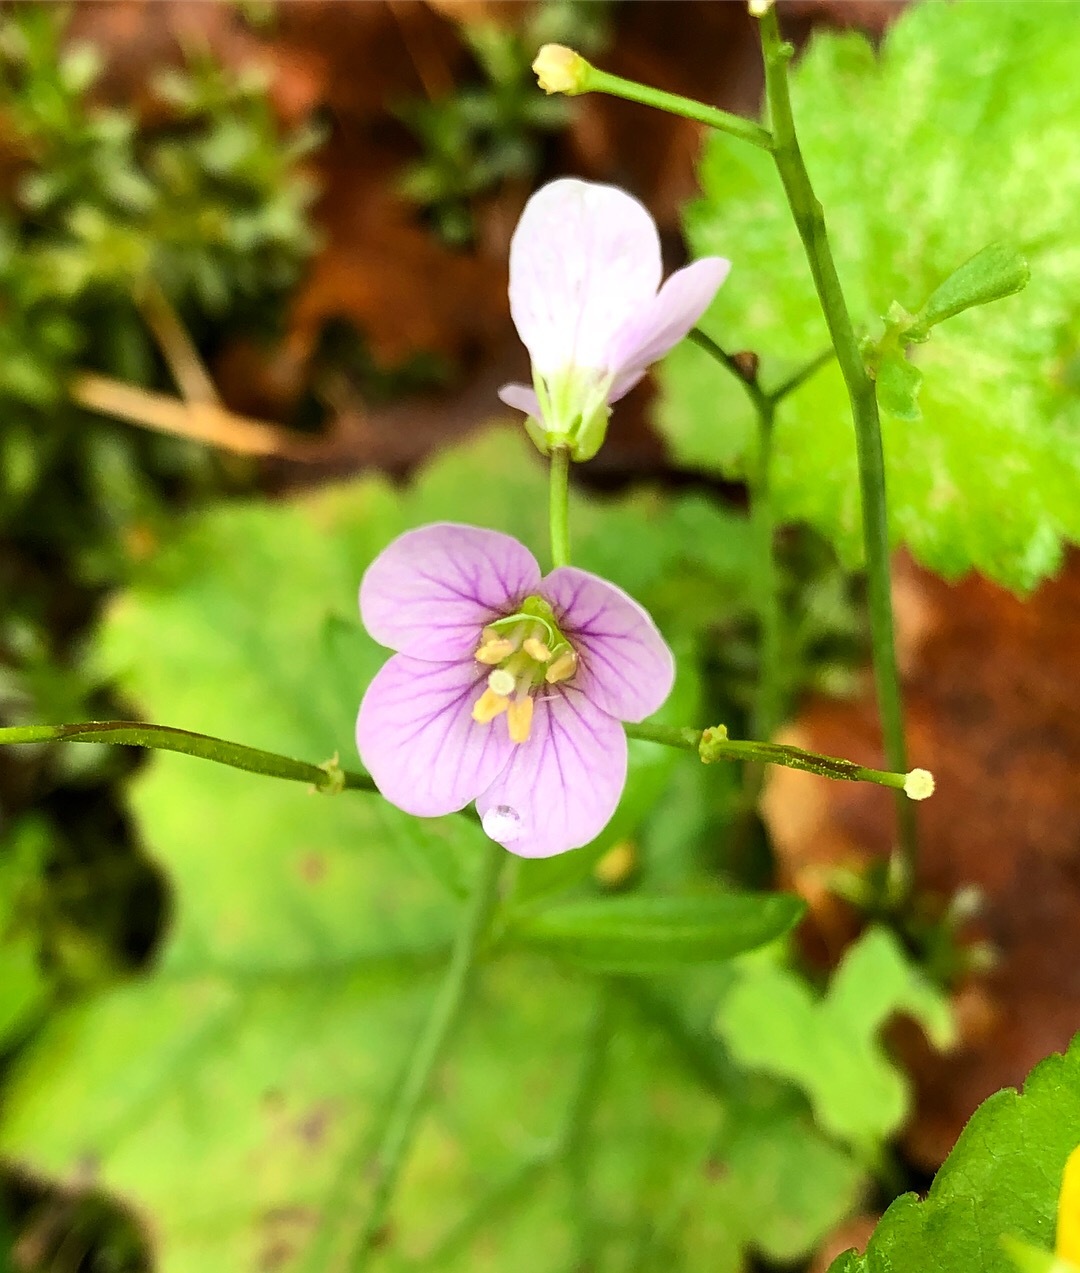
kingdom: Plantae
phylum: Tracheophyta
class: Magnoliopsida
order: Brassicales
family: Brassicaceae
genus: Cardamine
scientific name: Cardamine nuttallii
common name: Nuttall's toothwort
